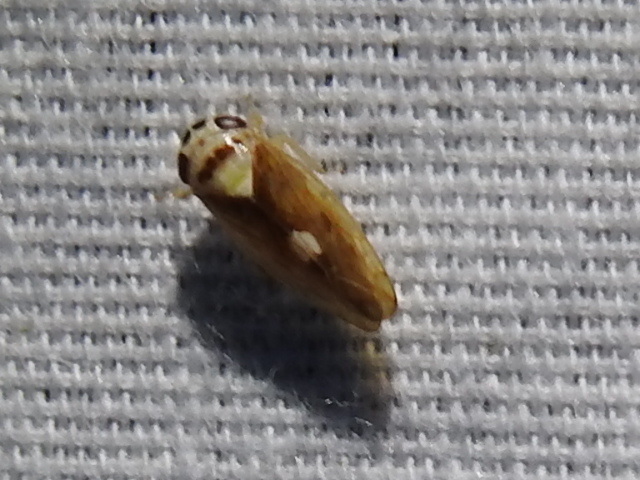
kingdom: Animalia
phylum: Arthropoda
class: Insecta
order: Hemiptera
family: Cicadellidae
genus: Eutettix
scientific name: Eutettix pictus
